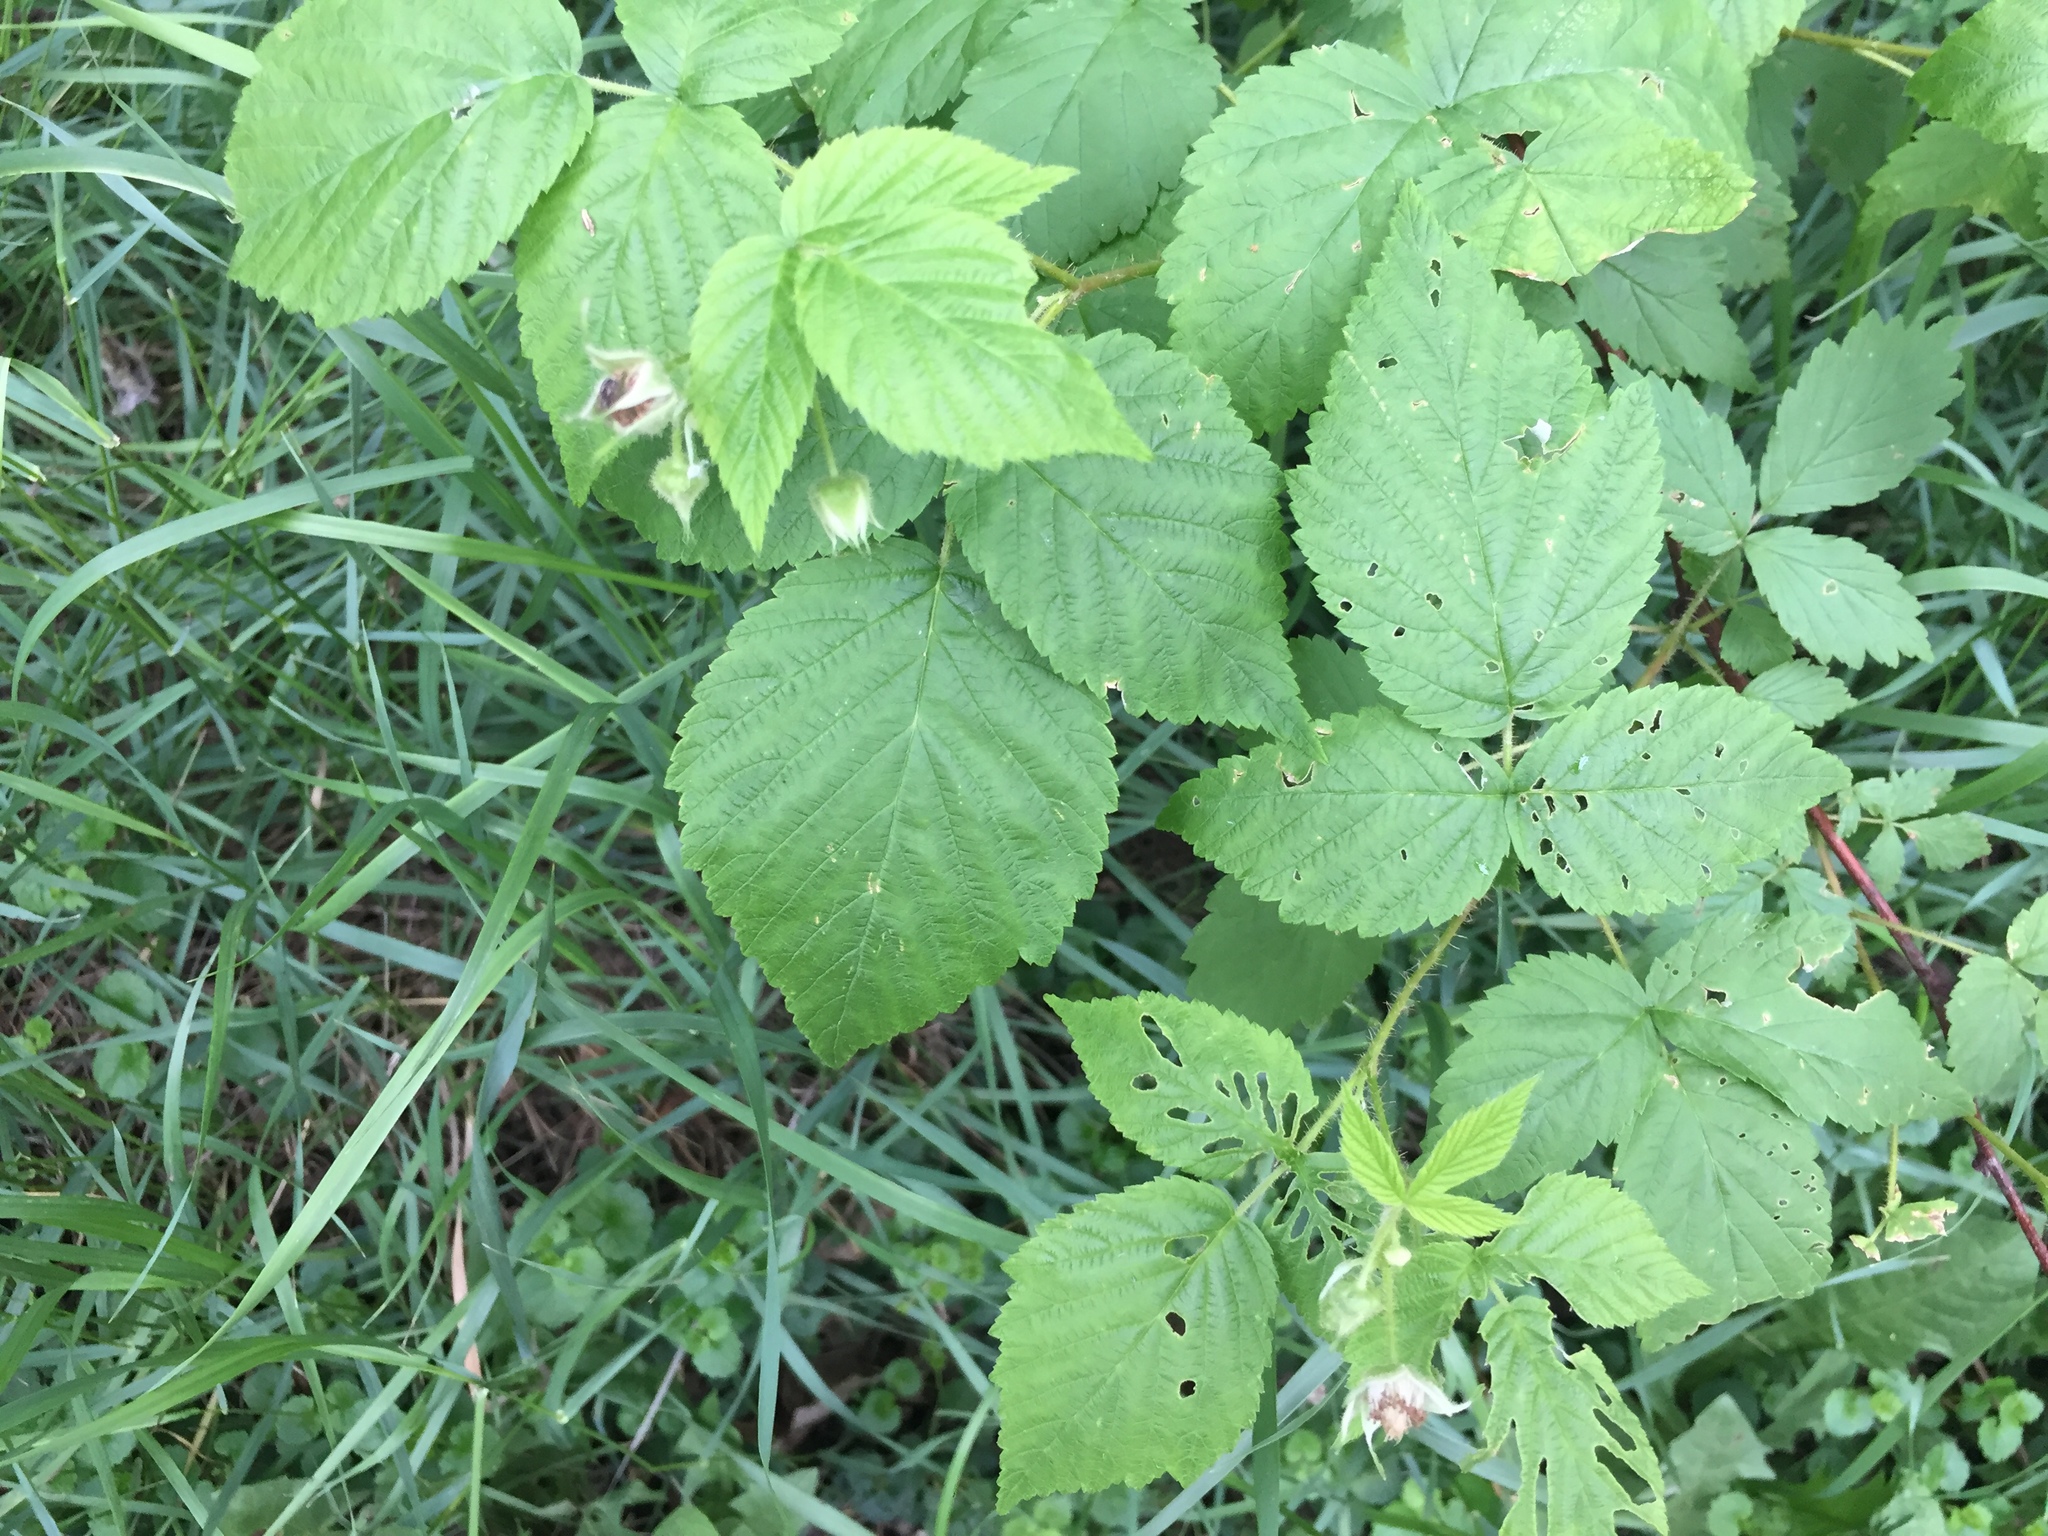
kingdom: Plantae
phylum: Tracheophyta
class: Magnoliopsida
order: Rosales
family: Rosaceae
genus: Rubus
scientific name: Rubus idaeus
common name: Raspberry
